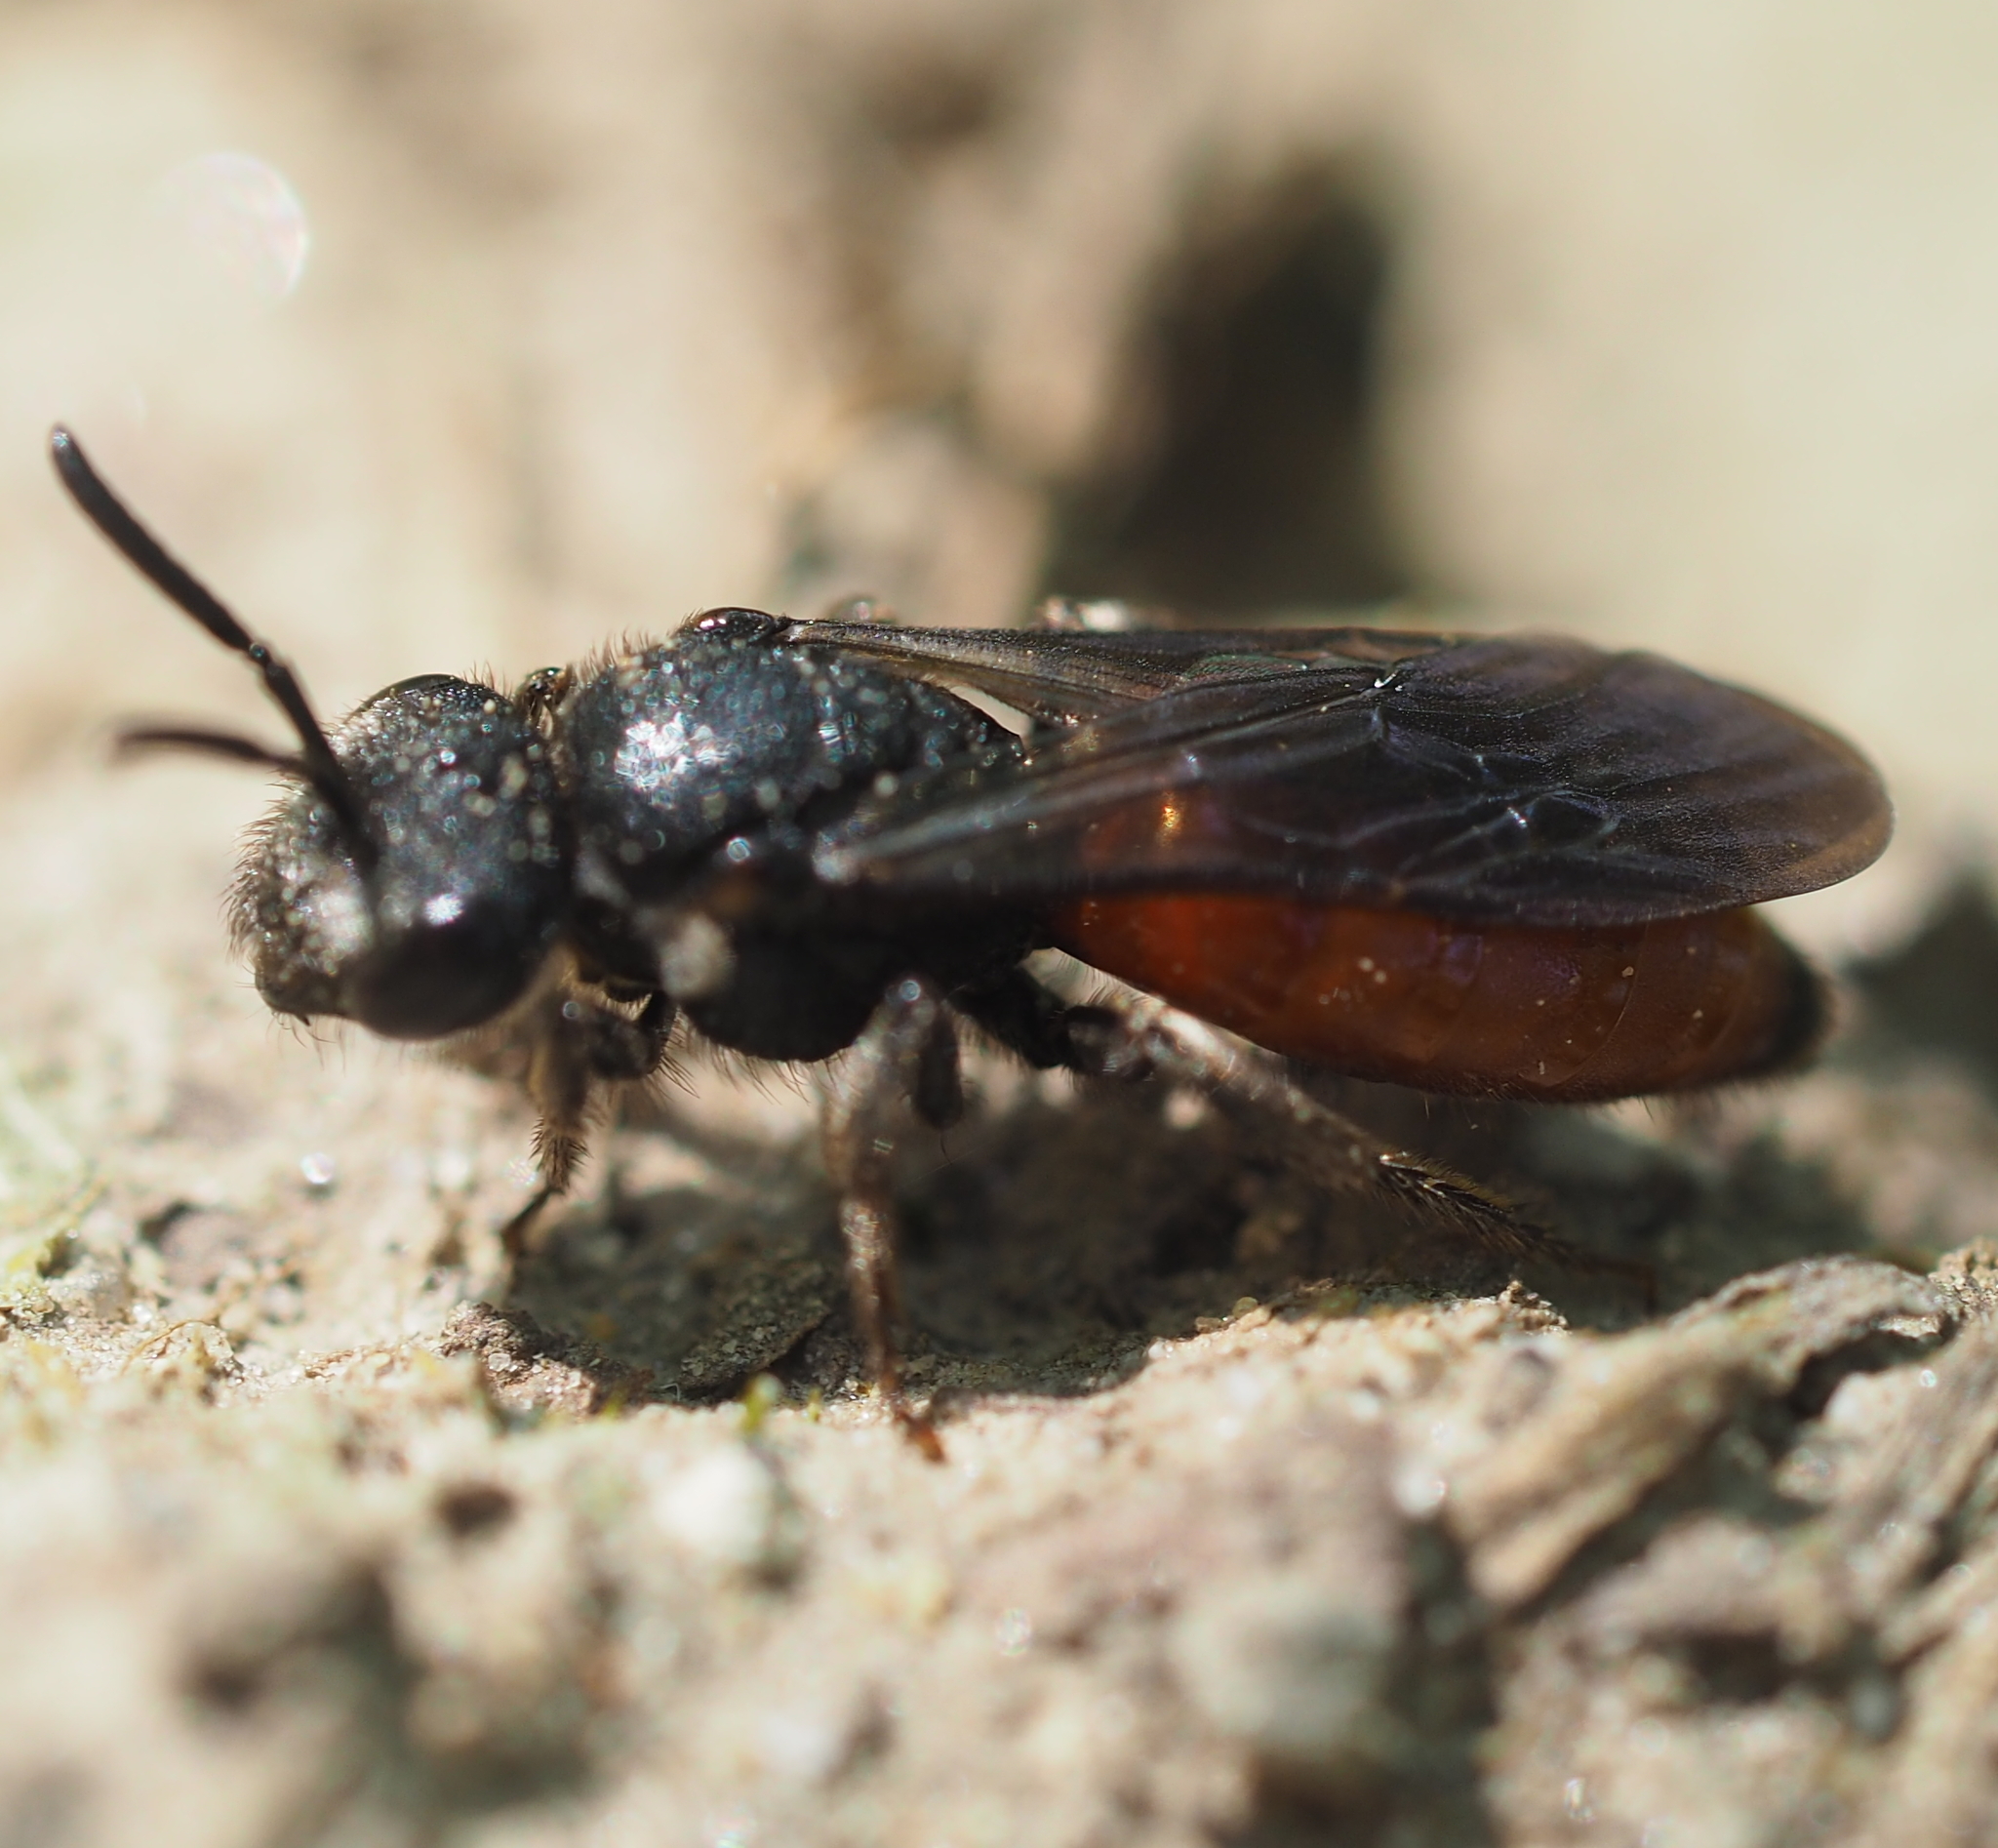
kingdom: Animalia
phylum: Arthropoda
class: Insecta
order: Hymenoptera
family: Halictidae
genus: Sphecodes
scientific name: Sphecodes albilabris
